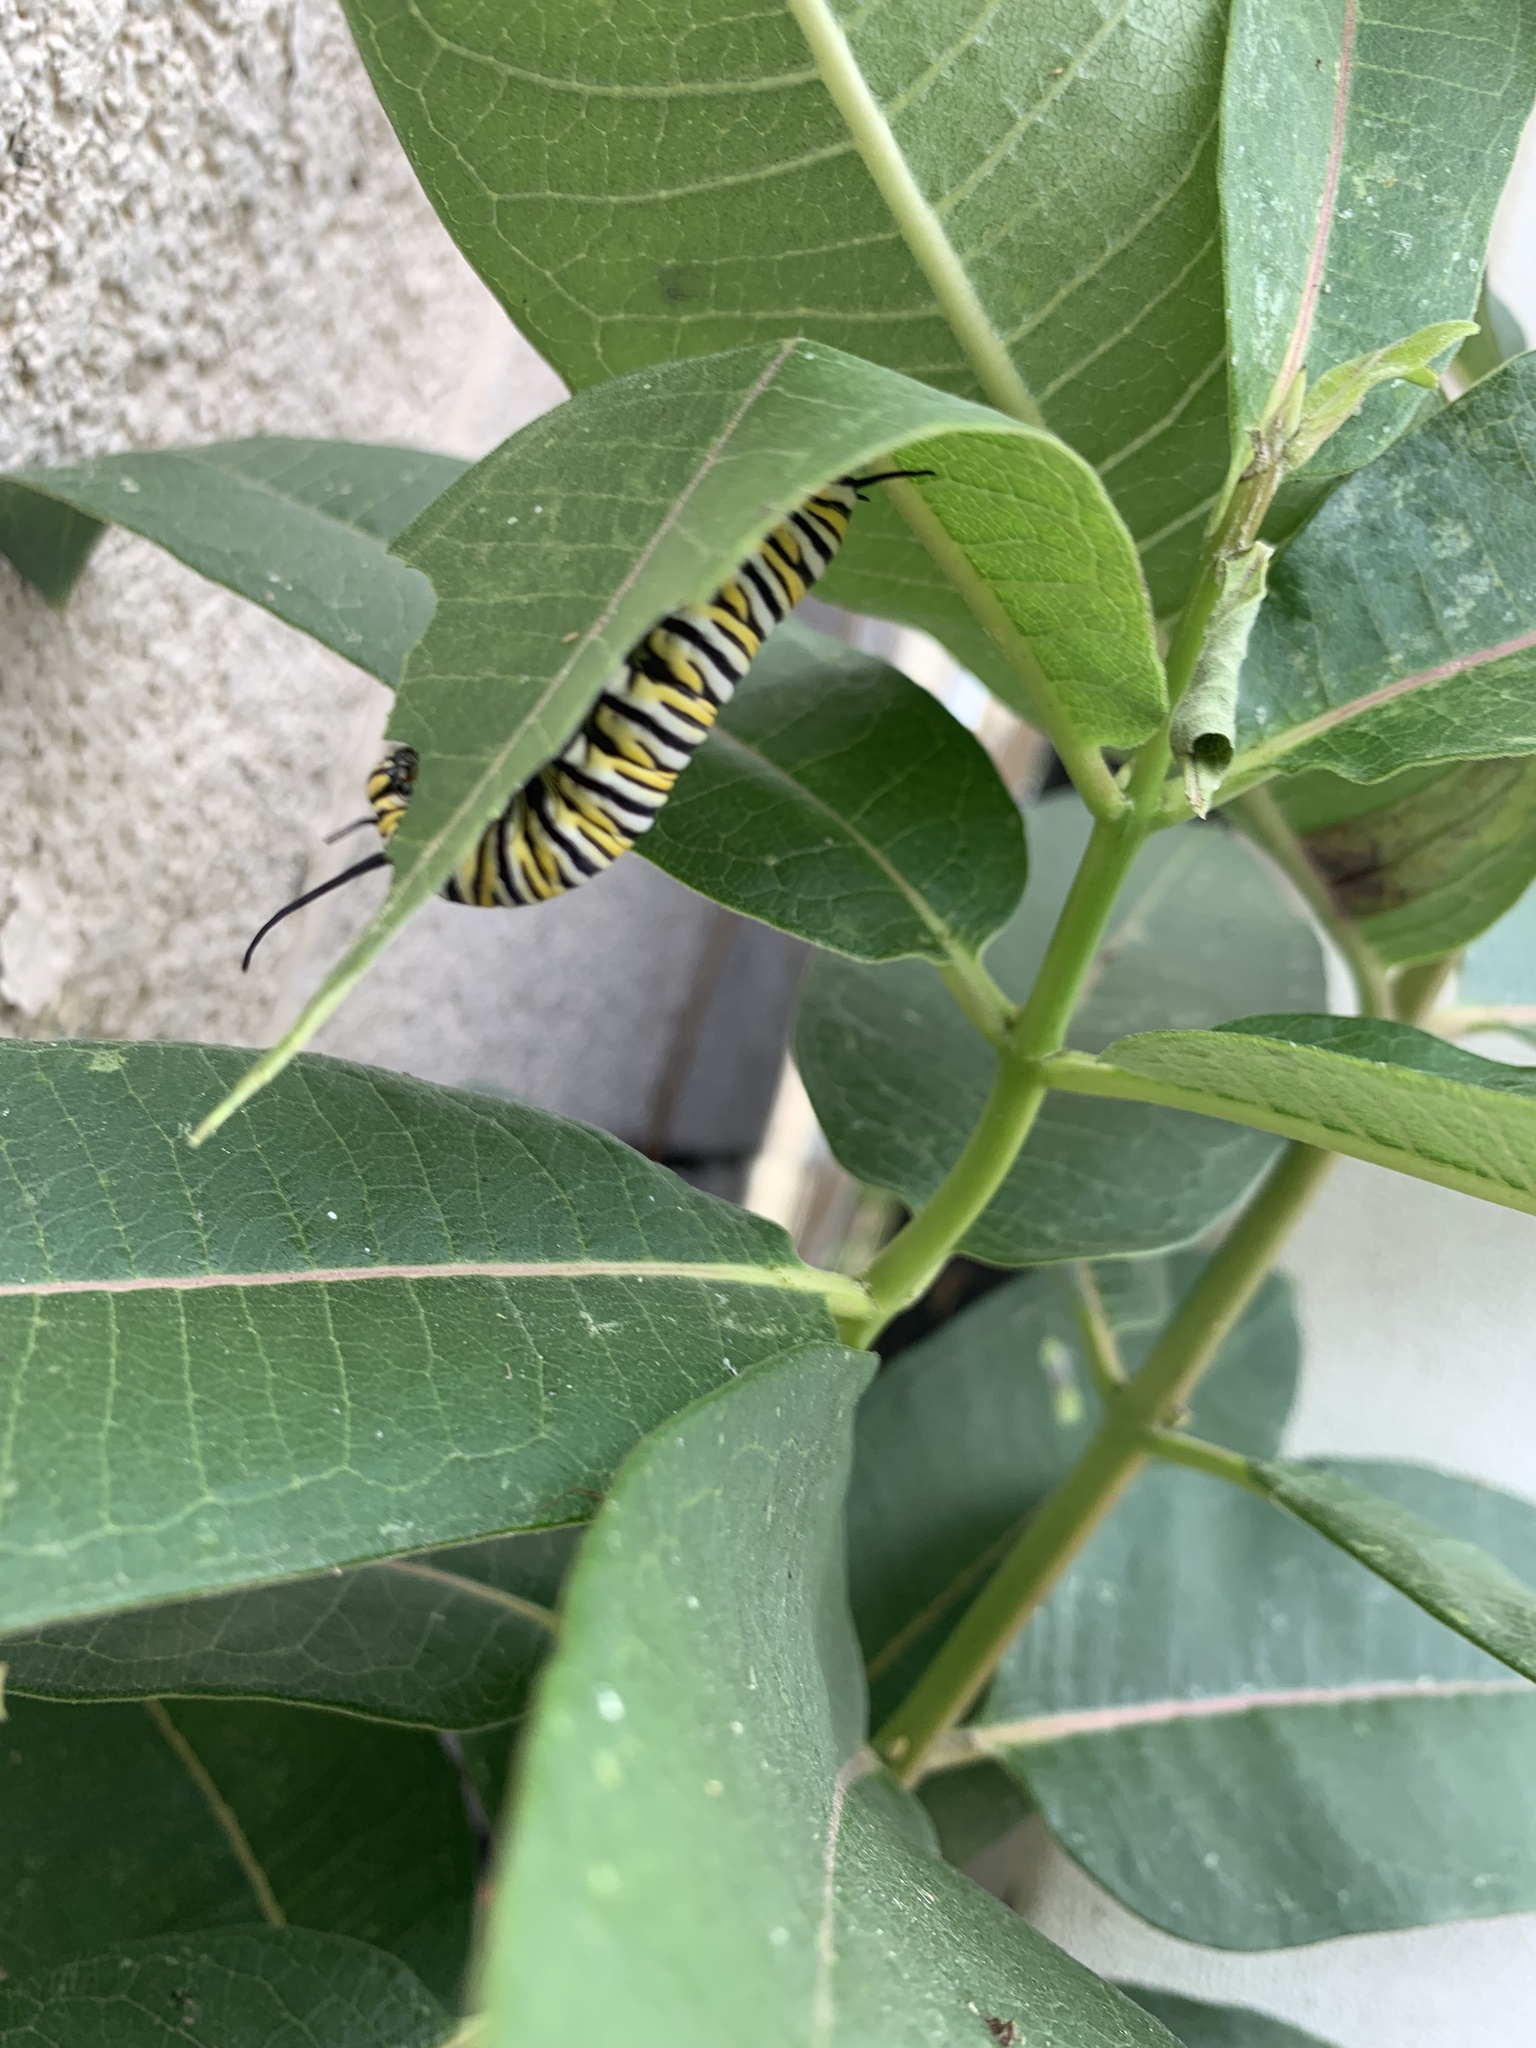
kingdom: Animalia
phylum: Arthropoda
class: Insecta
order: Lepidoptera
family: Nymphalidae
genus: Danaus
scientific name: Danaus plexippus
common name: Monarch
